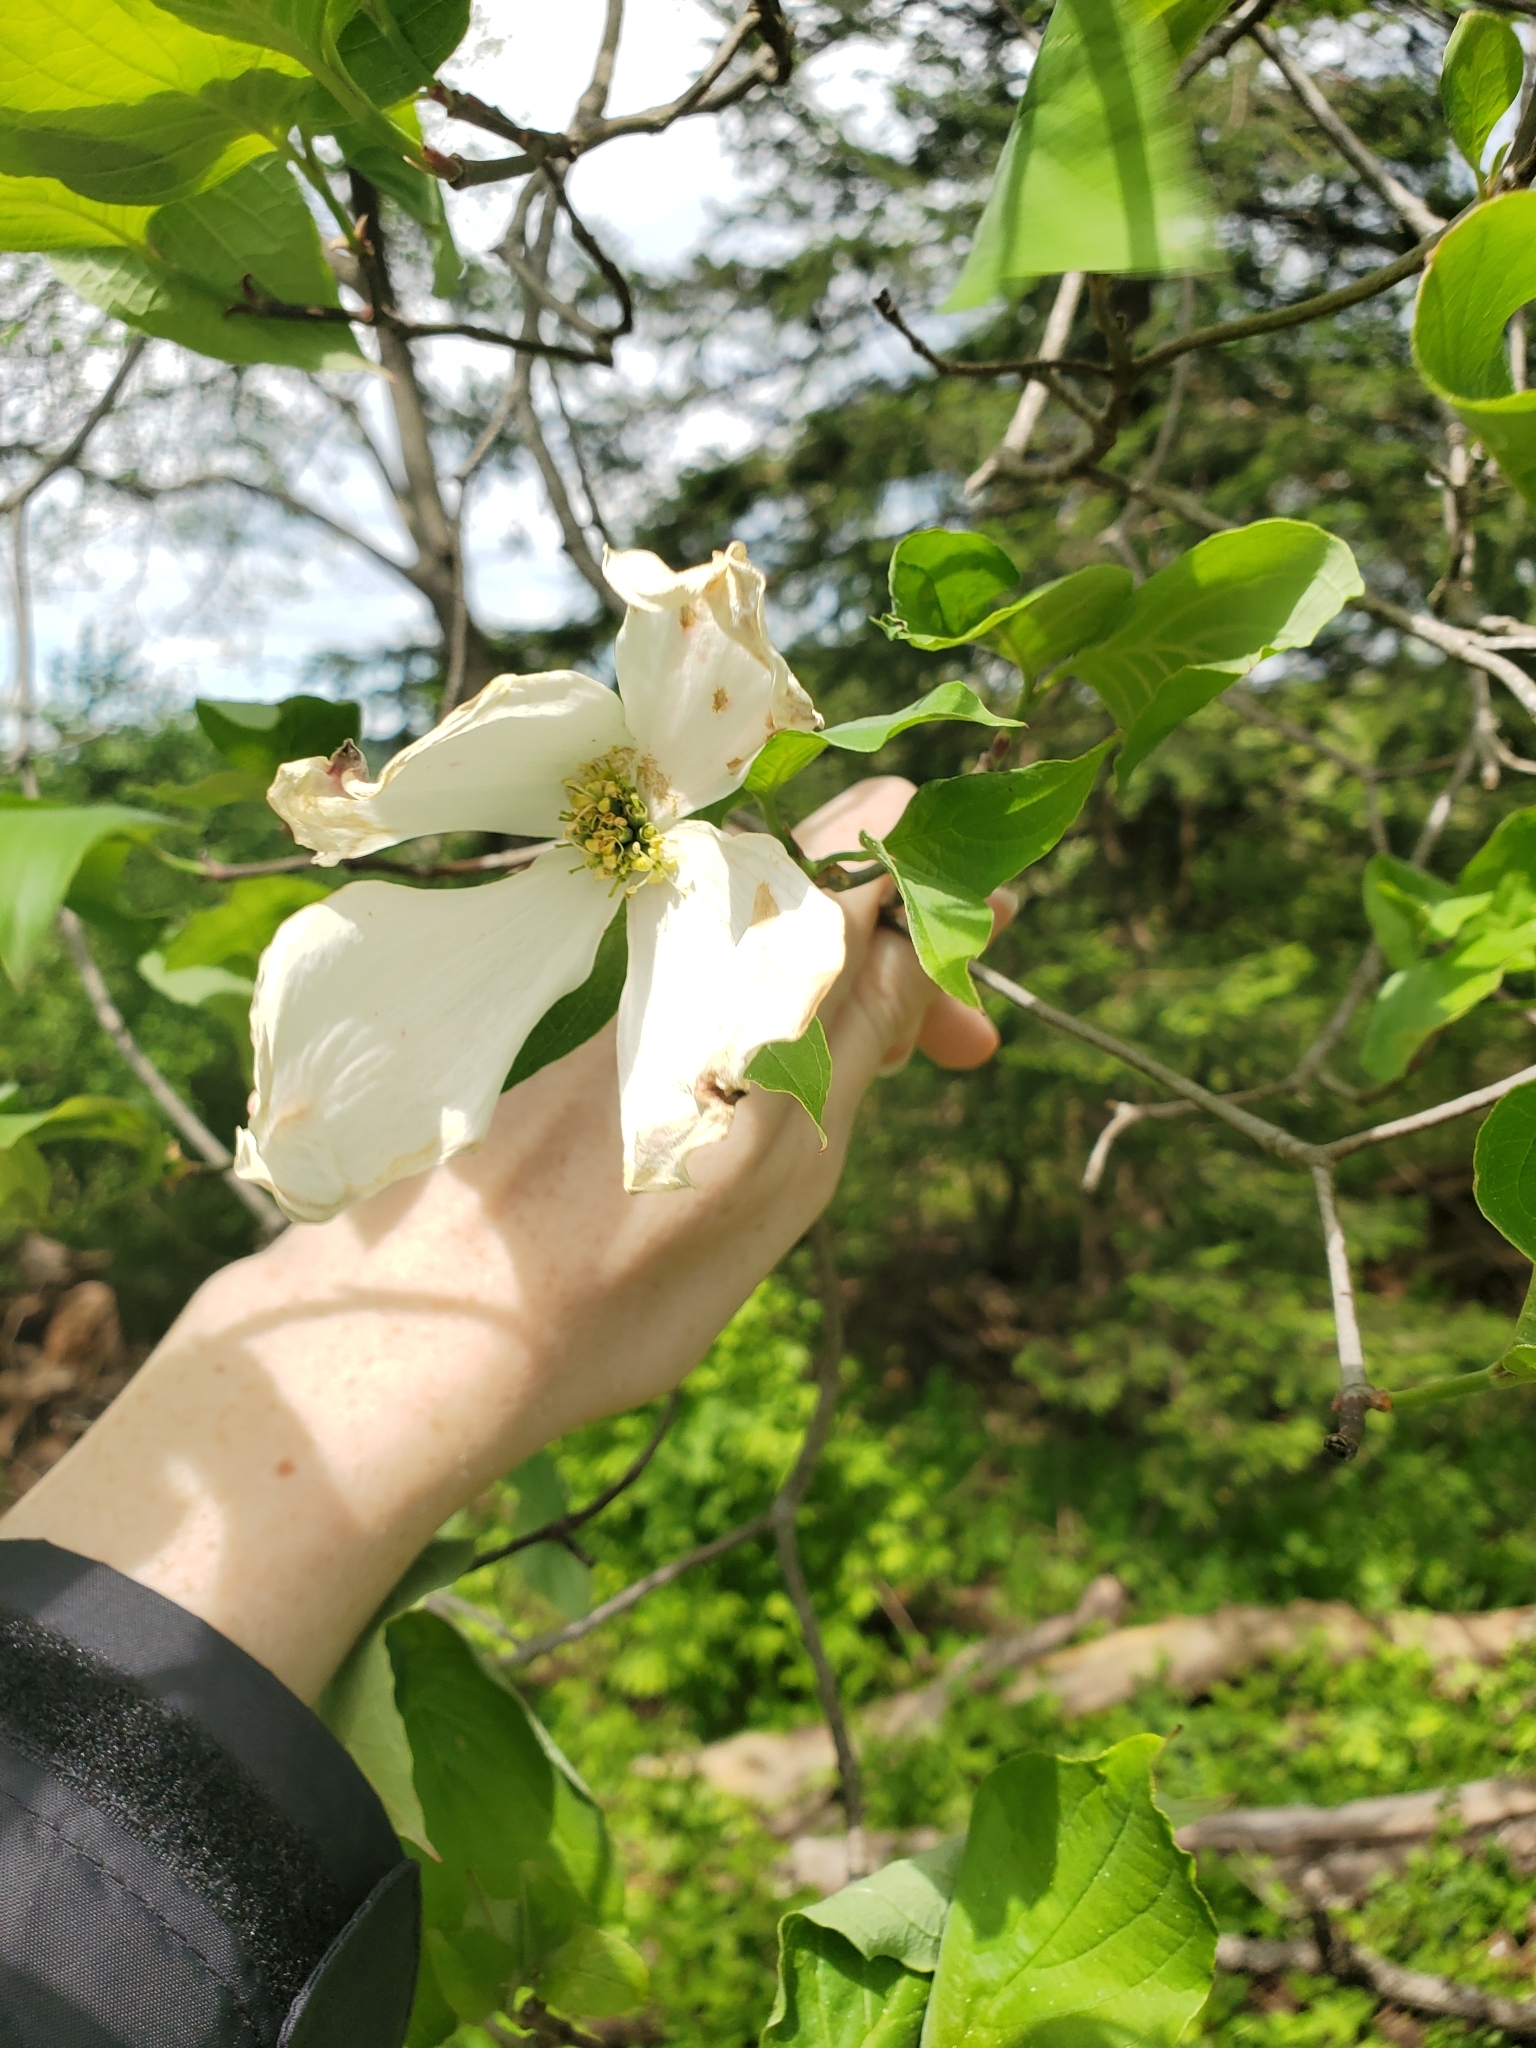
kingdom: Plantae
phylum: Tracheophyta
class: Magnoliopsida
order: Cornales
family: Cornaceae
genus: Cornus
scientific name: Cornus florida
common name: Flowering dogwood
